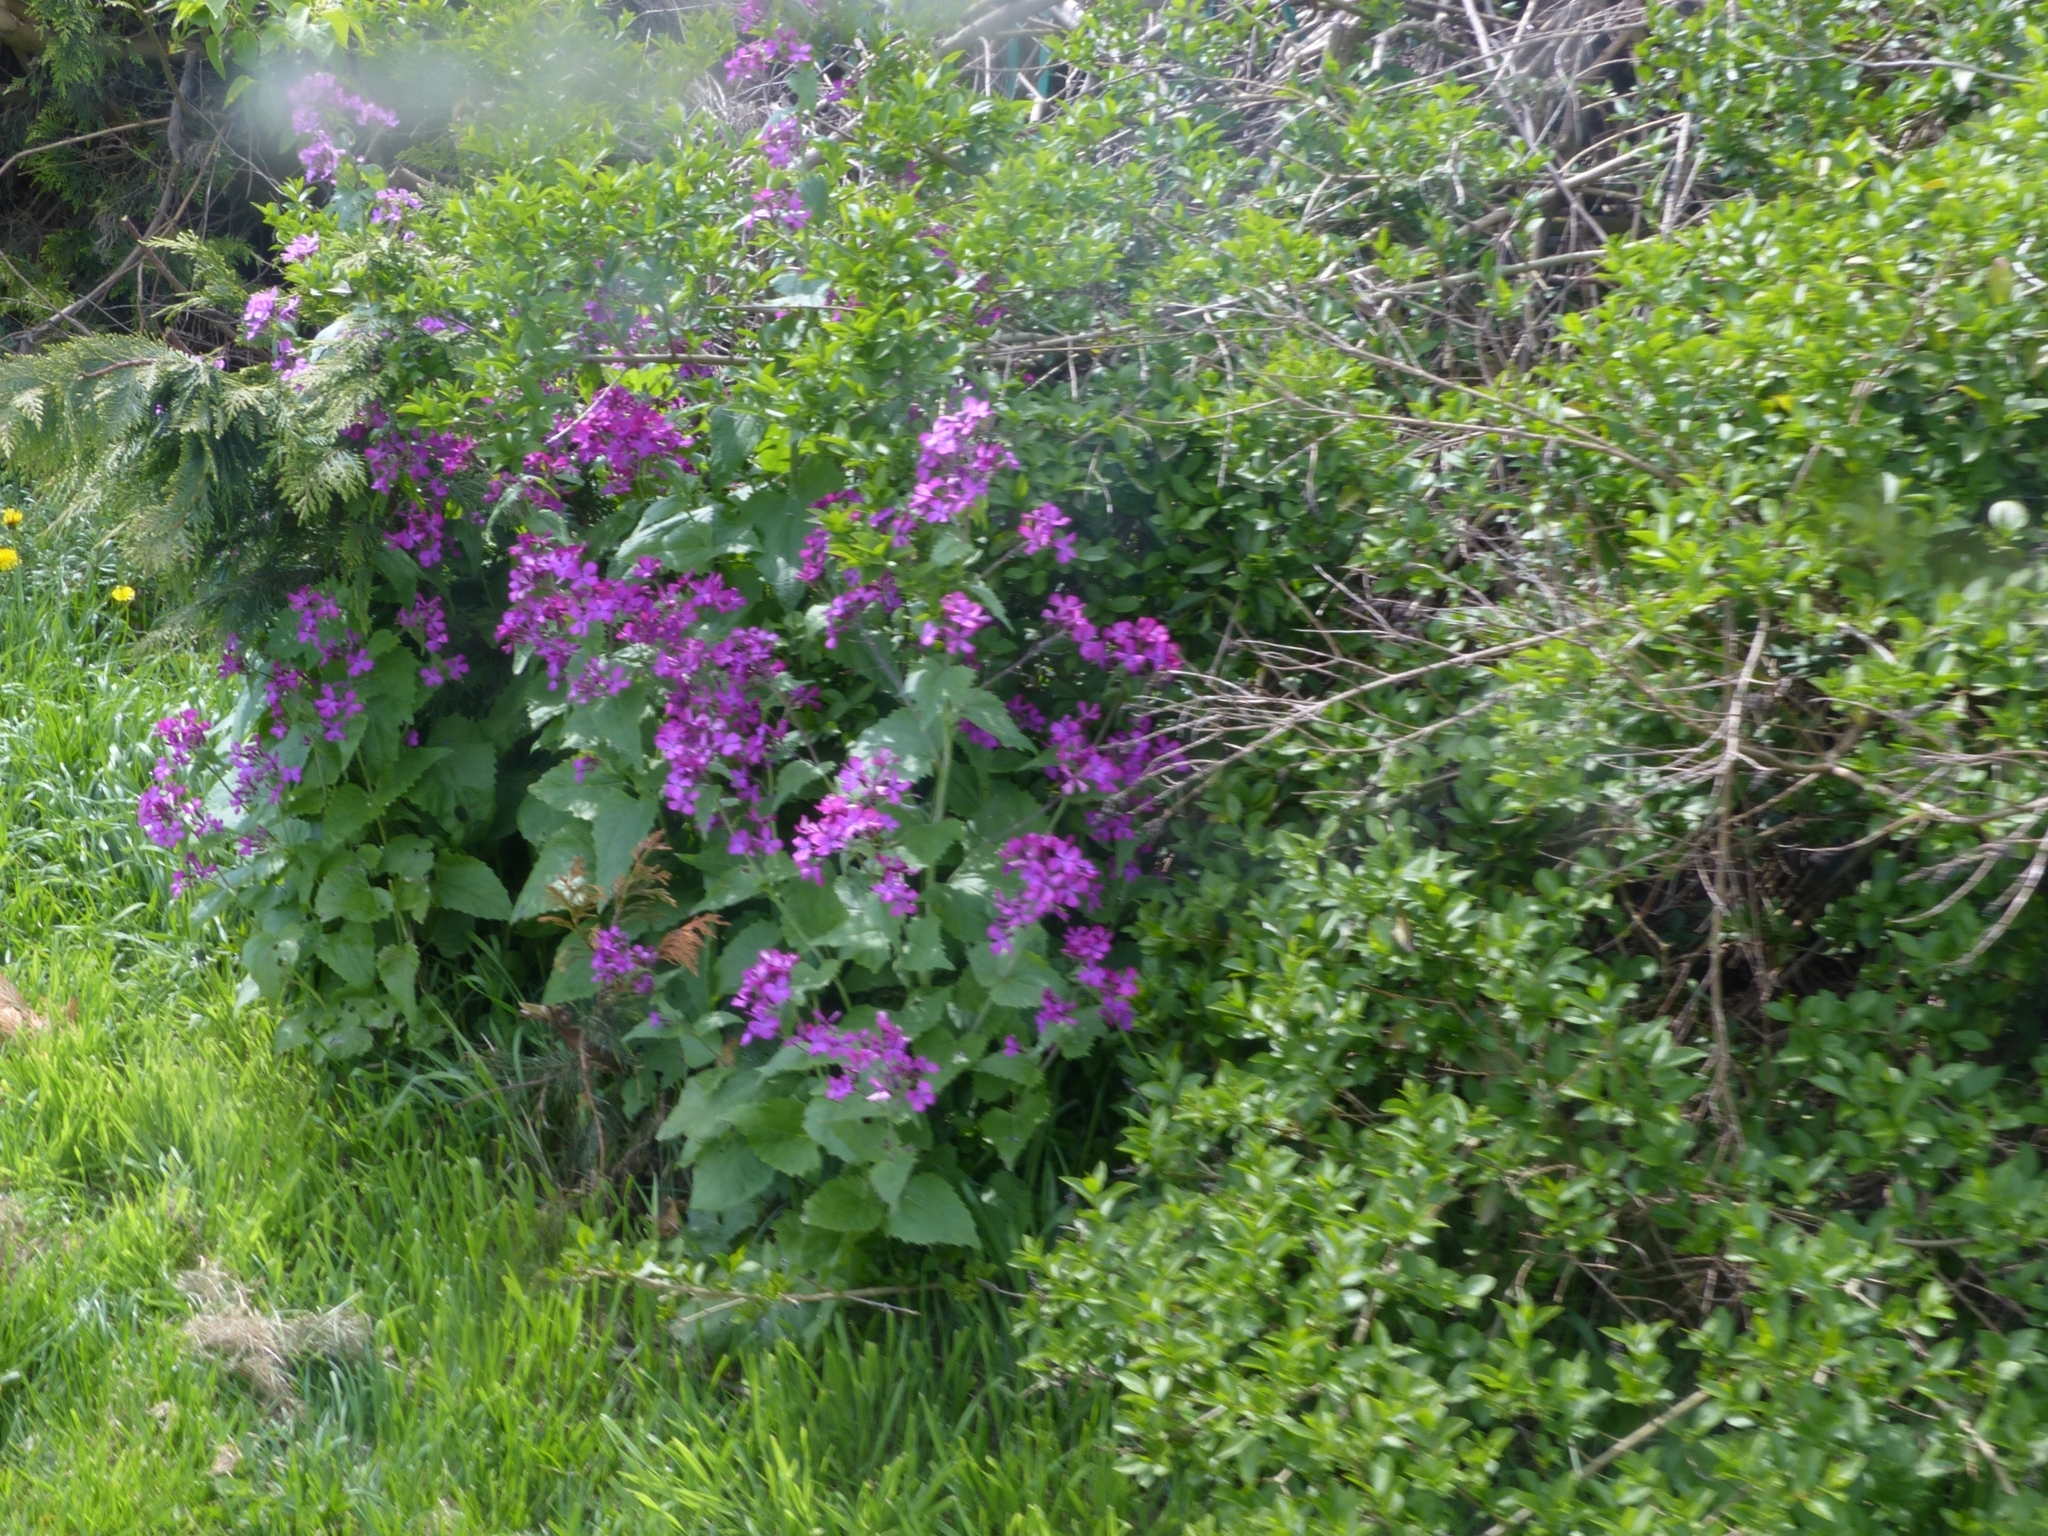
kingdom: Plantae
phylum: Tracheophyta
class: Magnoliopsida
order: Brassicales
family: Brassicaceae
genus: Lunaria
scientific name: Lunaria annua
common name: Honesty
